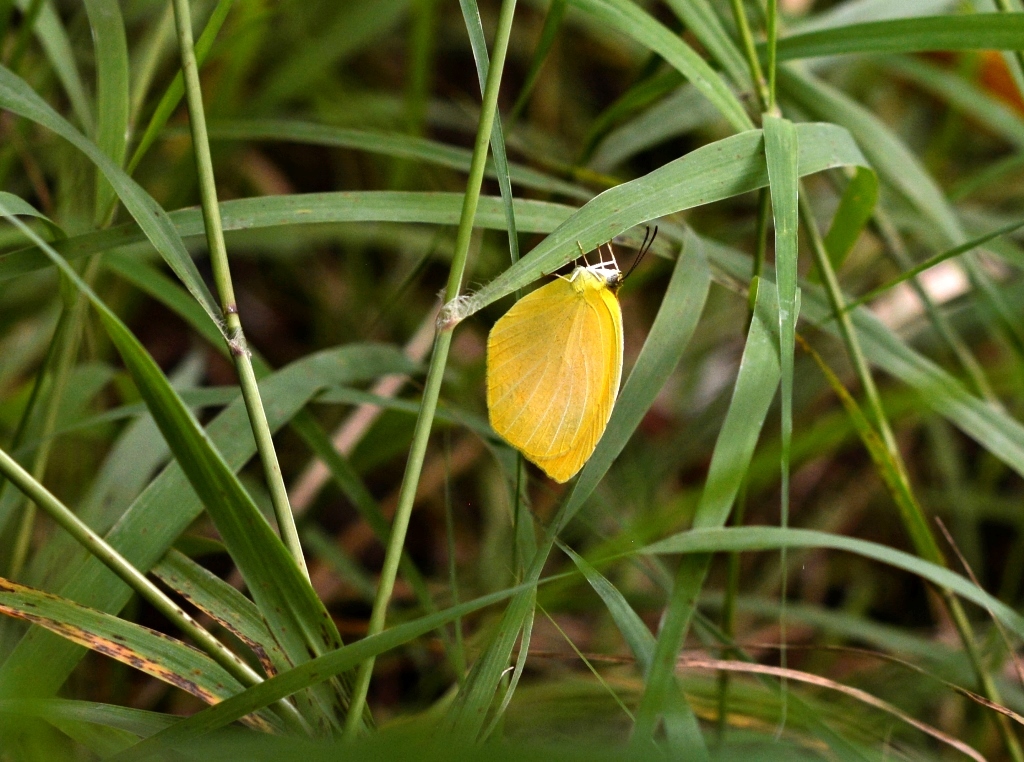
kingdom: Animalia
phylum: Arthropoda
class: Insecta
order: Lepidoptera
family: Pieridae
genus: Pyrisitia
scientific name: Pyrisitia proterpia
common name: Tailed orange
